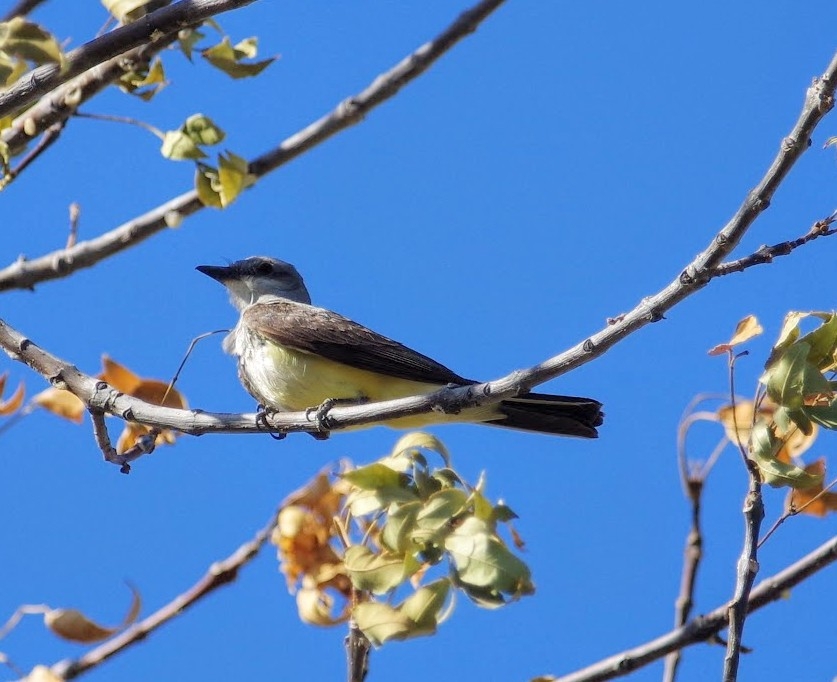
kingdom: Animalia
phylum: Chordata
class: Aves
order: Passeriformes
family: Tyrannidae
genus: Tyrannus
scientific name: Tyrannus verticalis
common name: Western kingbird
